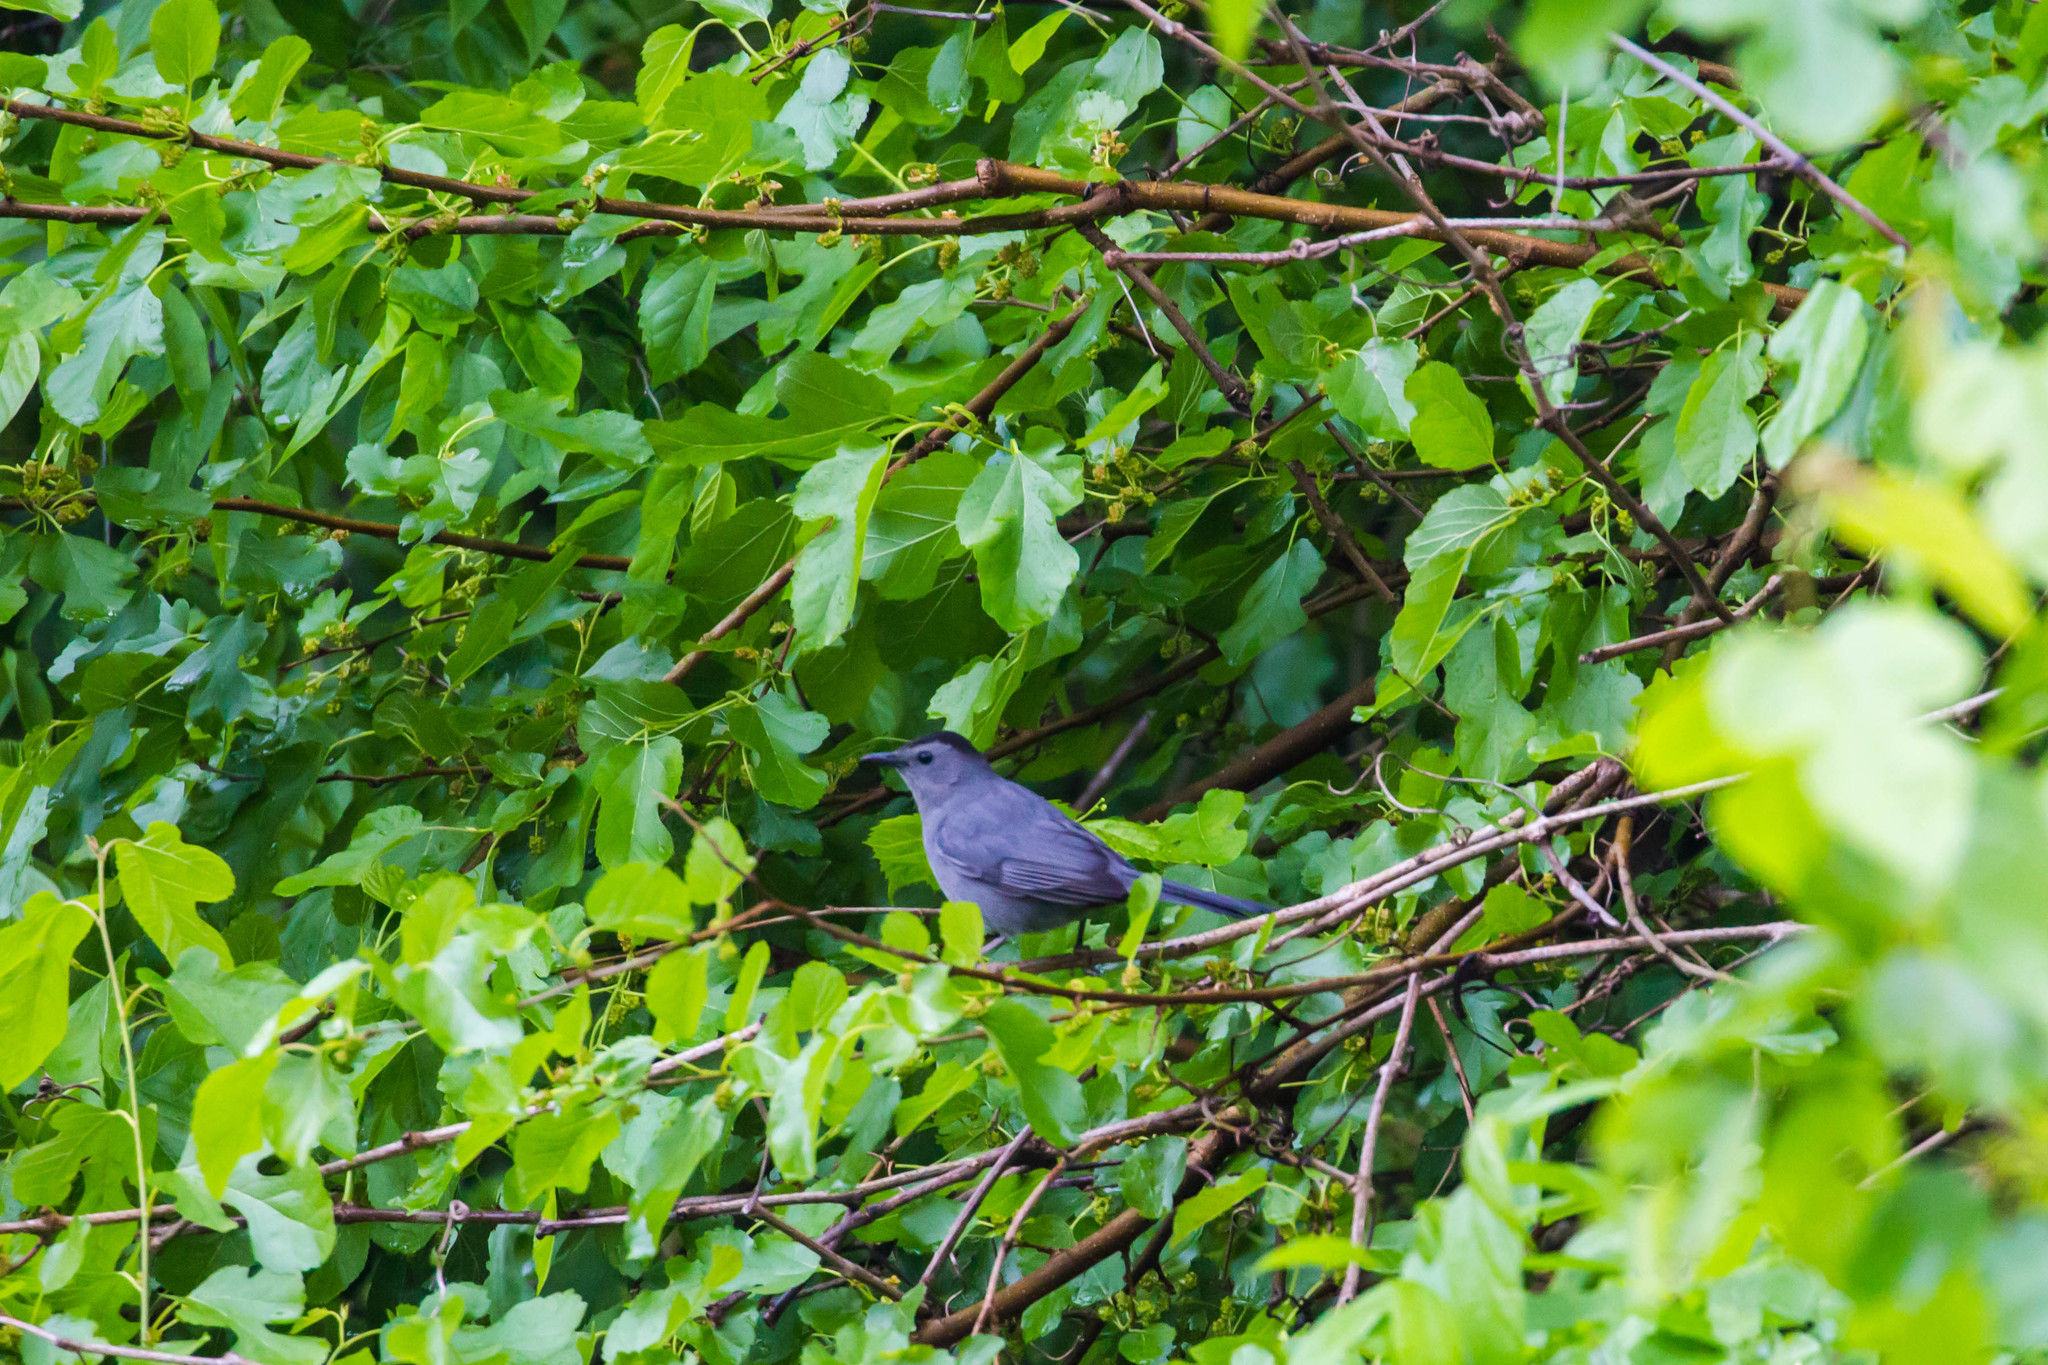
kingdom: Animalia
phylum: Chordata
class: Aves
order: Passeriformes
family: Mimidae
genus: Dumetella
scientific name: Dumetella carolinensis
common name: Gray catbird
